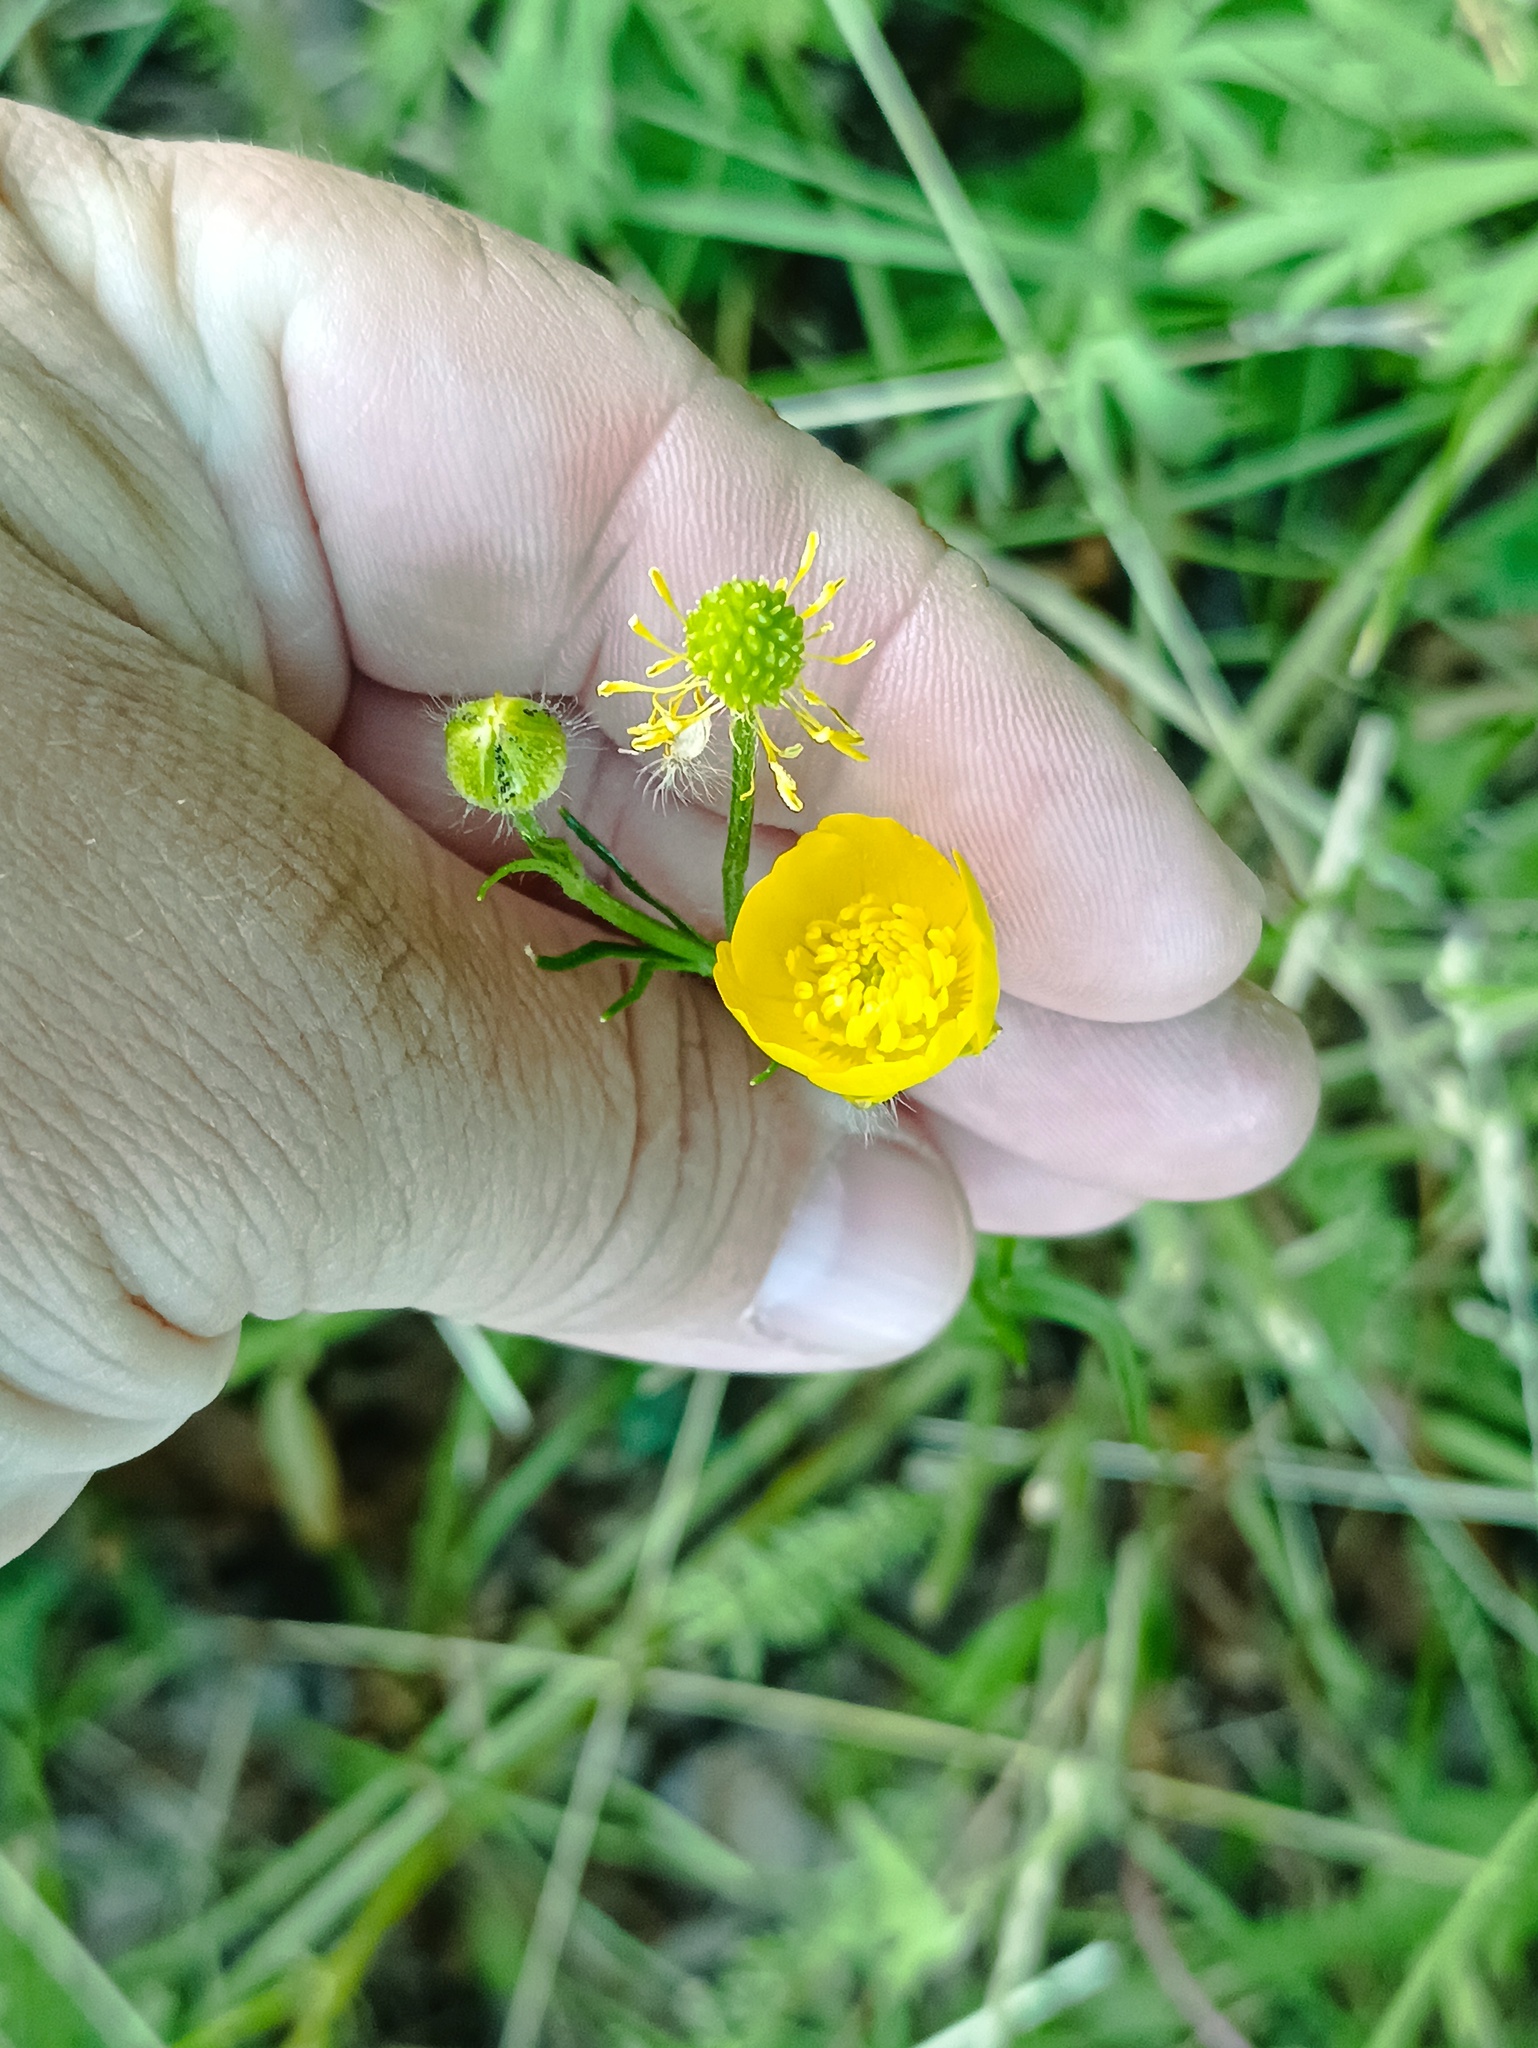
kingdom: Plantae
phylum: Tracheophyta
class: Magnoliopsida
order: Ranunculales
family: Ranunculaceae
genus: Ranunculus
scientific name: Ranunculus polyanthemos
